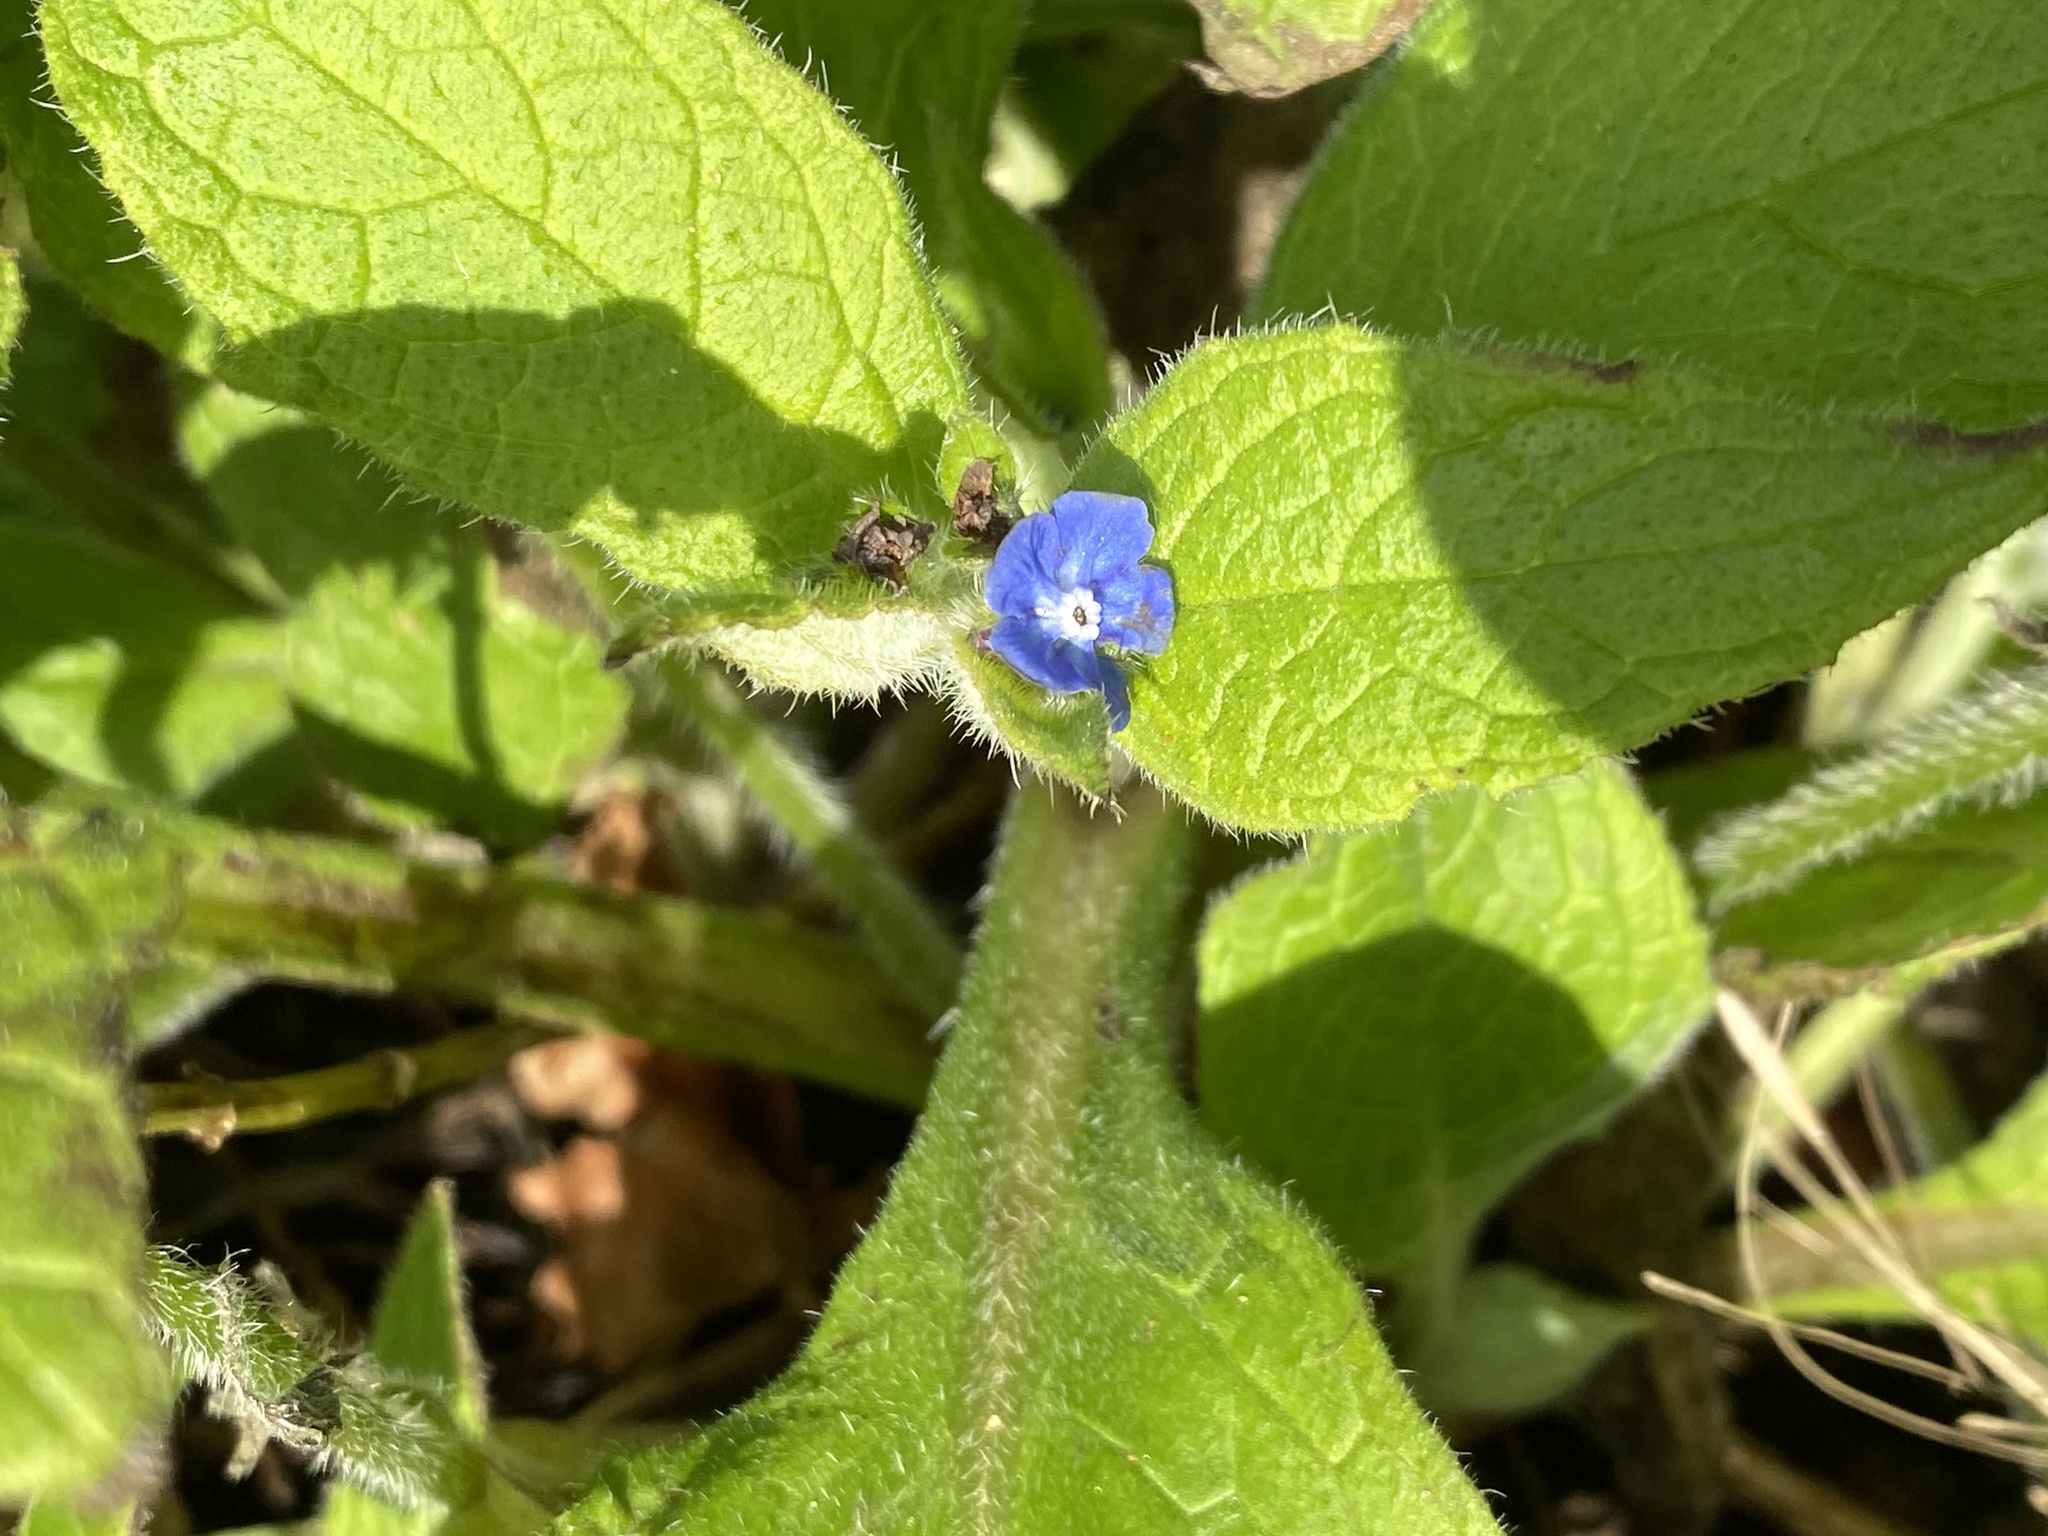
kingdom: Plantae
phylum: Tracheophyta
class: Magnoliopsida
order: Boraginales
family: Boraginaceae
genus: Pentaglottis
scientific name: Pentaglottis sempervirens
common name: Green alkanet
